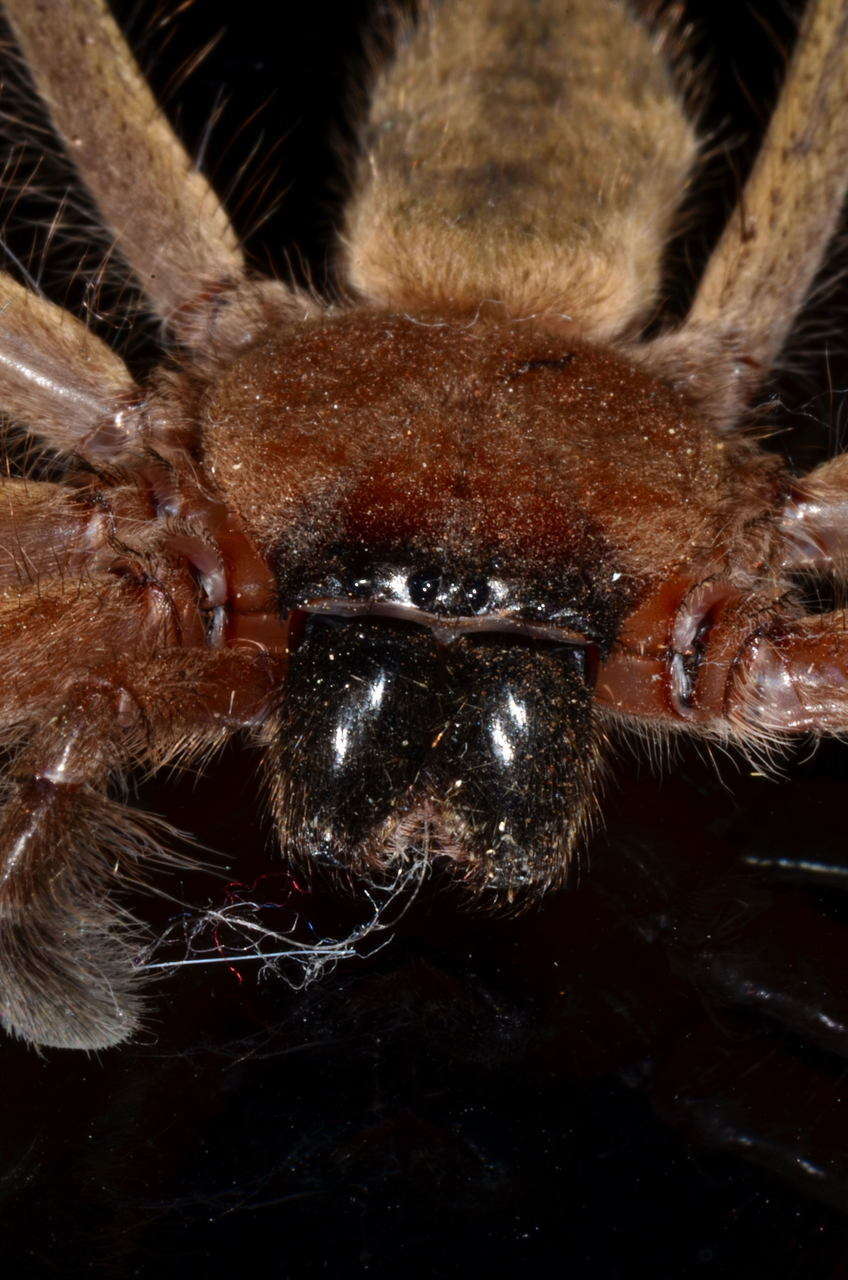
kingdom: Animalia
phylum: Arthropoda
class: Arachnida
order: Araneae
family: Sparassidae
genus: Delena
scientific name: Delena cancerides
